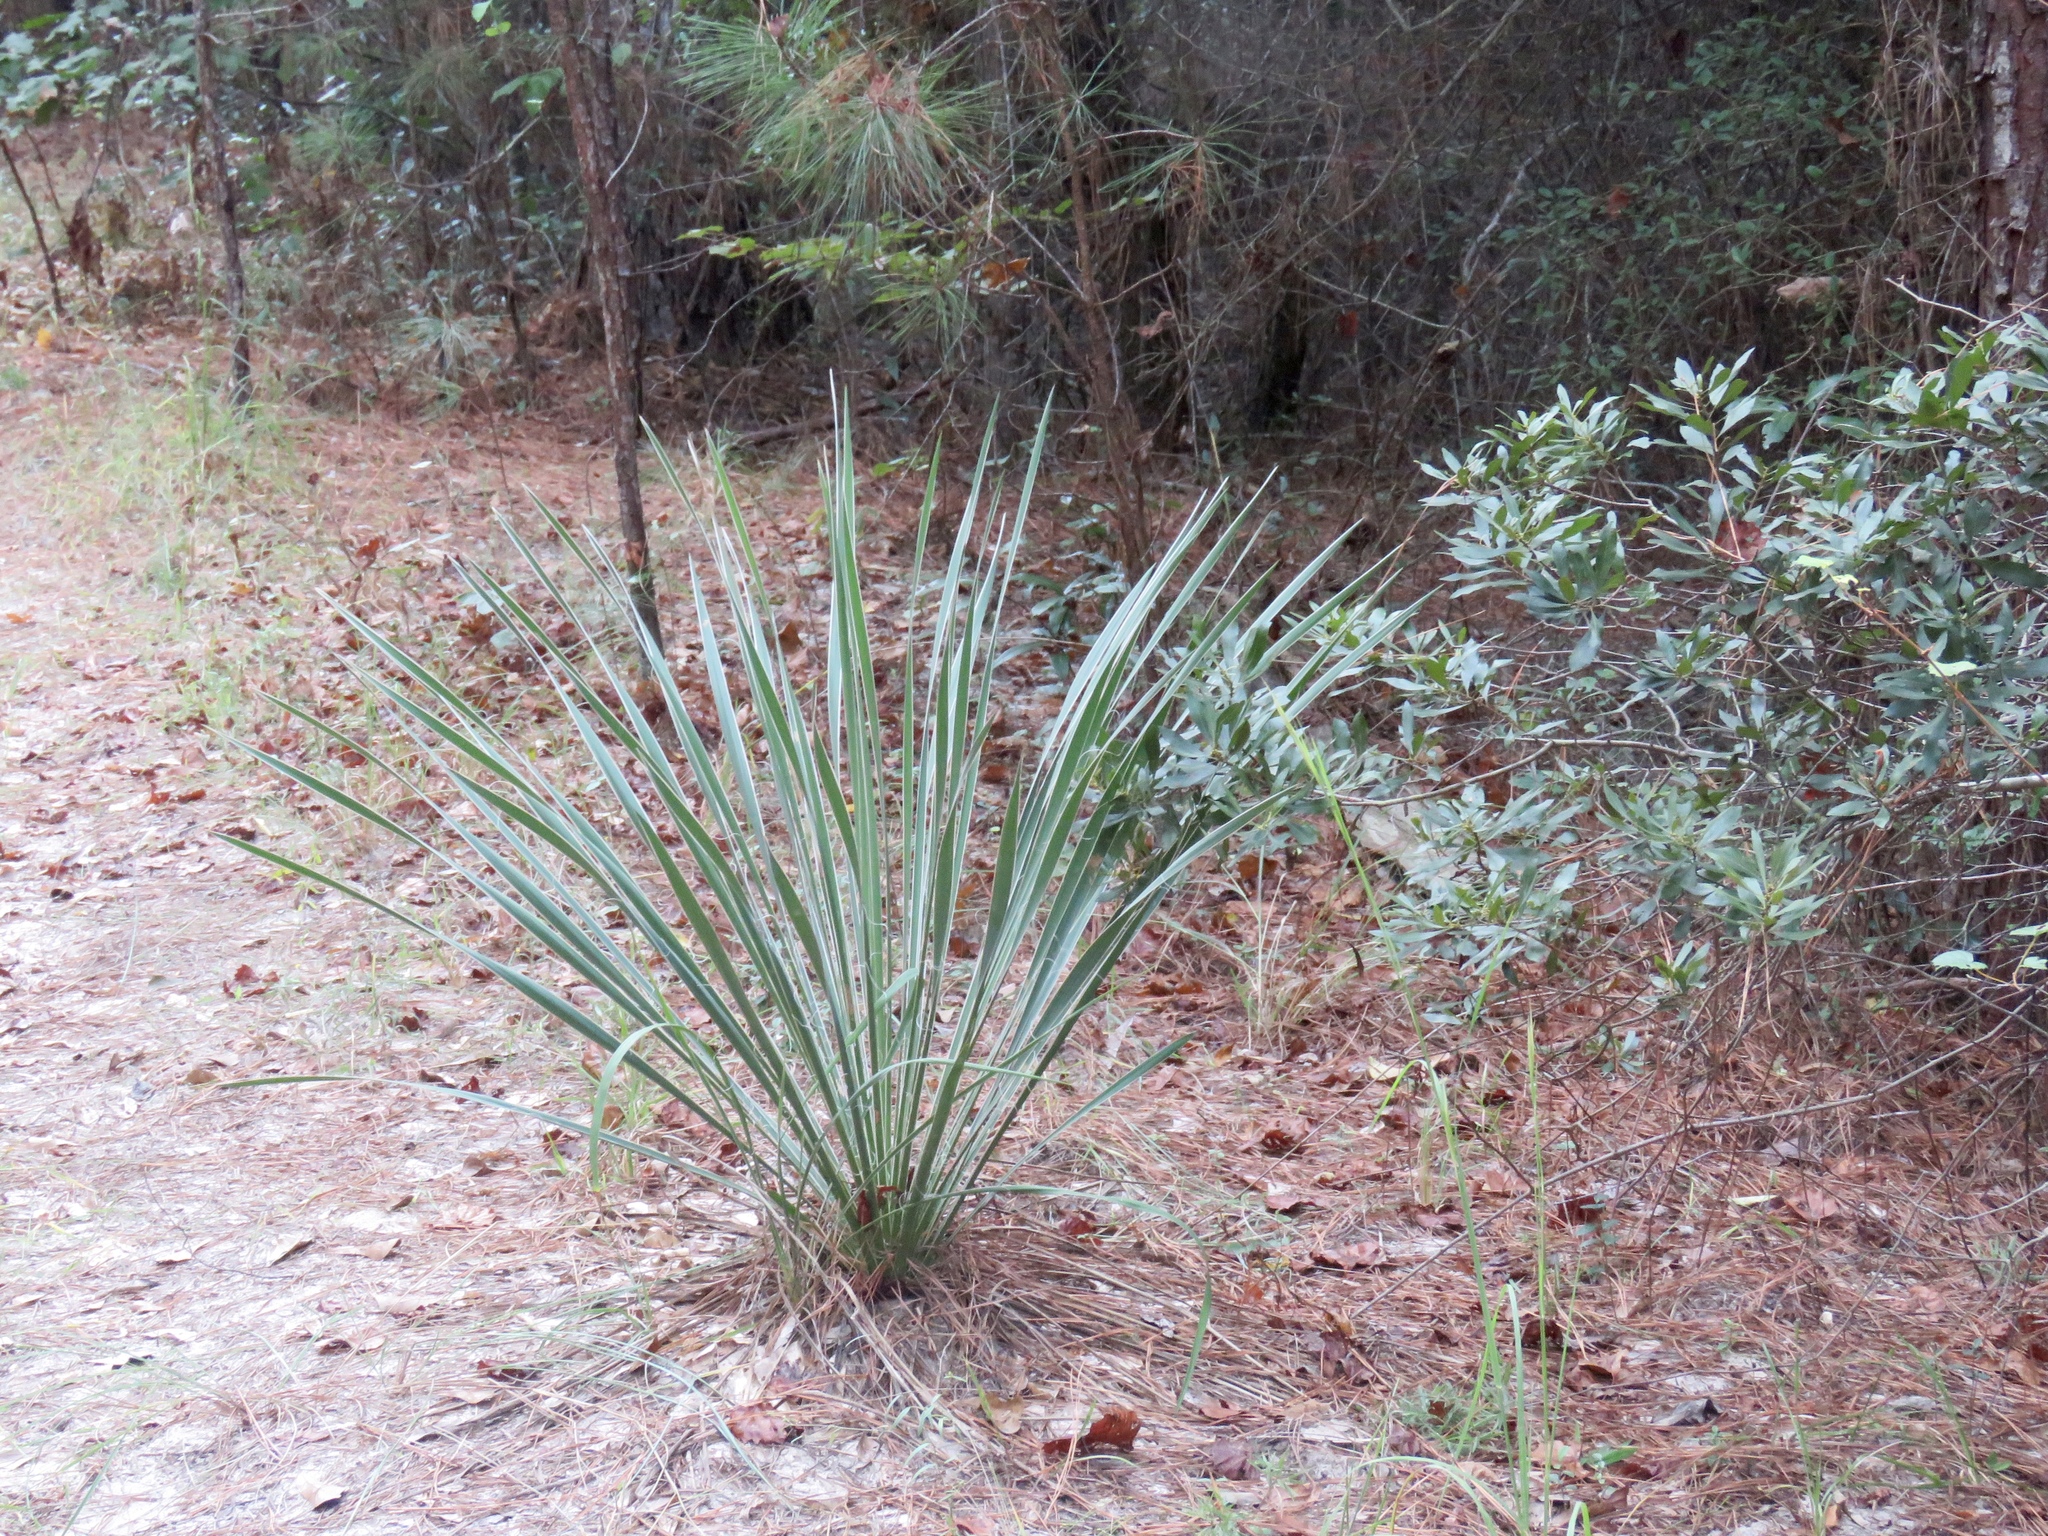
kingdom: Plantae
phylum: Tracheophyta
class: Liliopsida
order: Asparagales
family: Asparagaceae
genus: Yucca
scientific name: Yucca flaccida
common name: Adam's-needle
